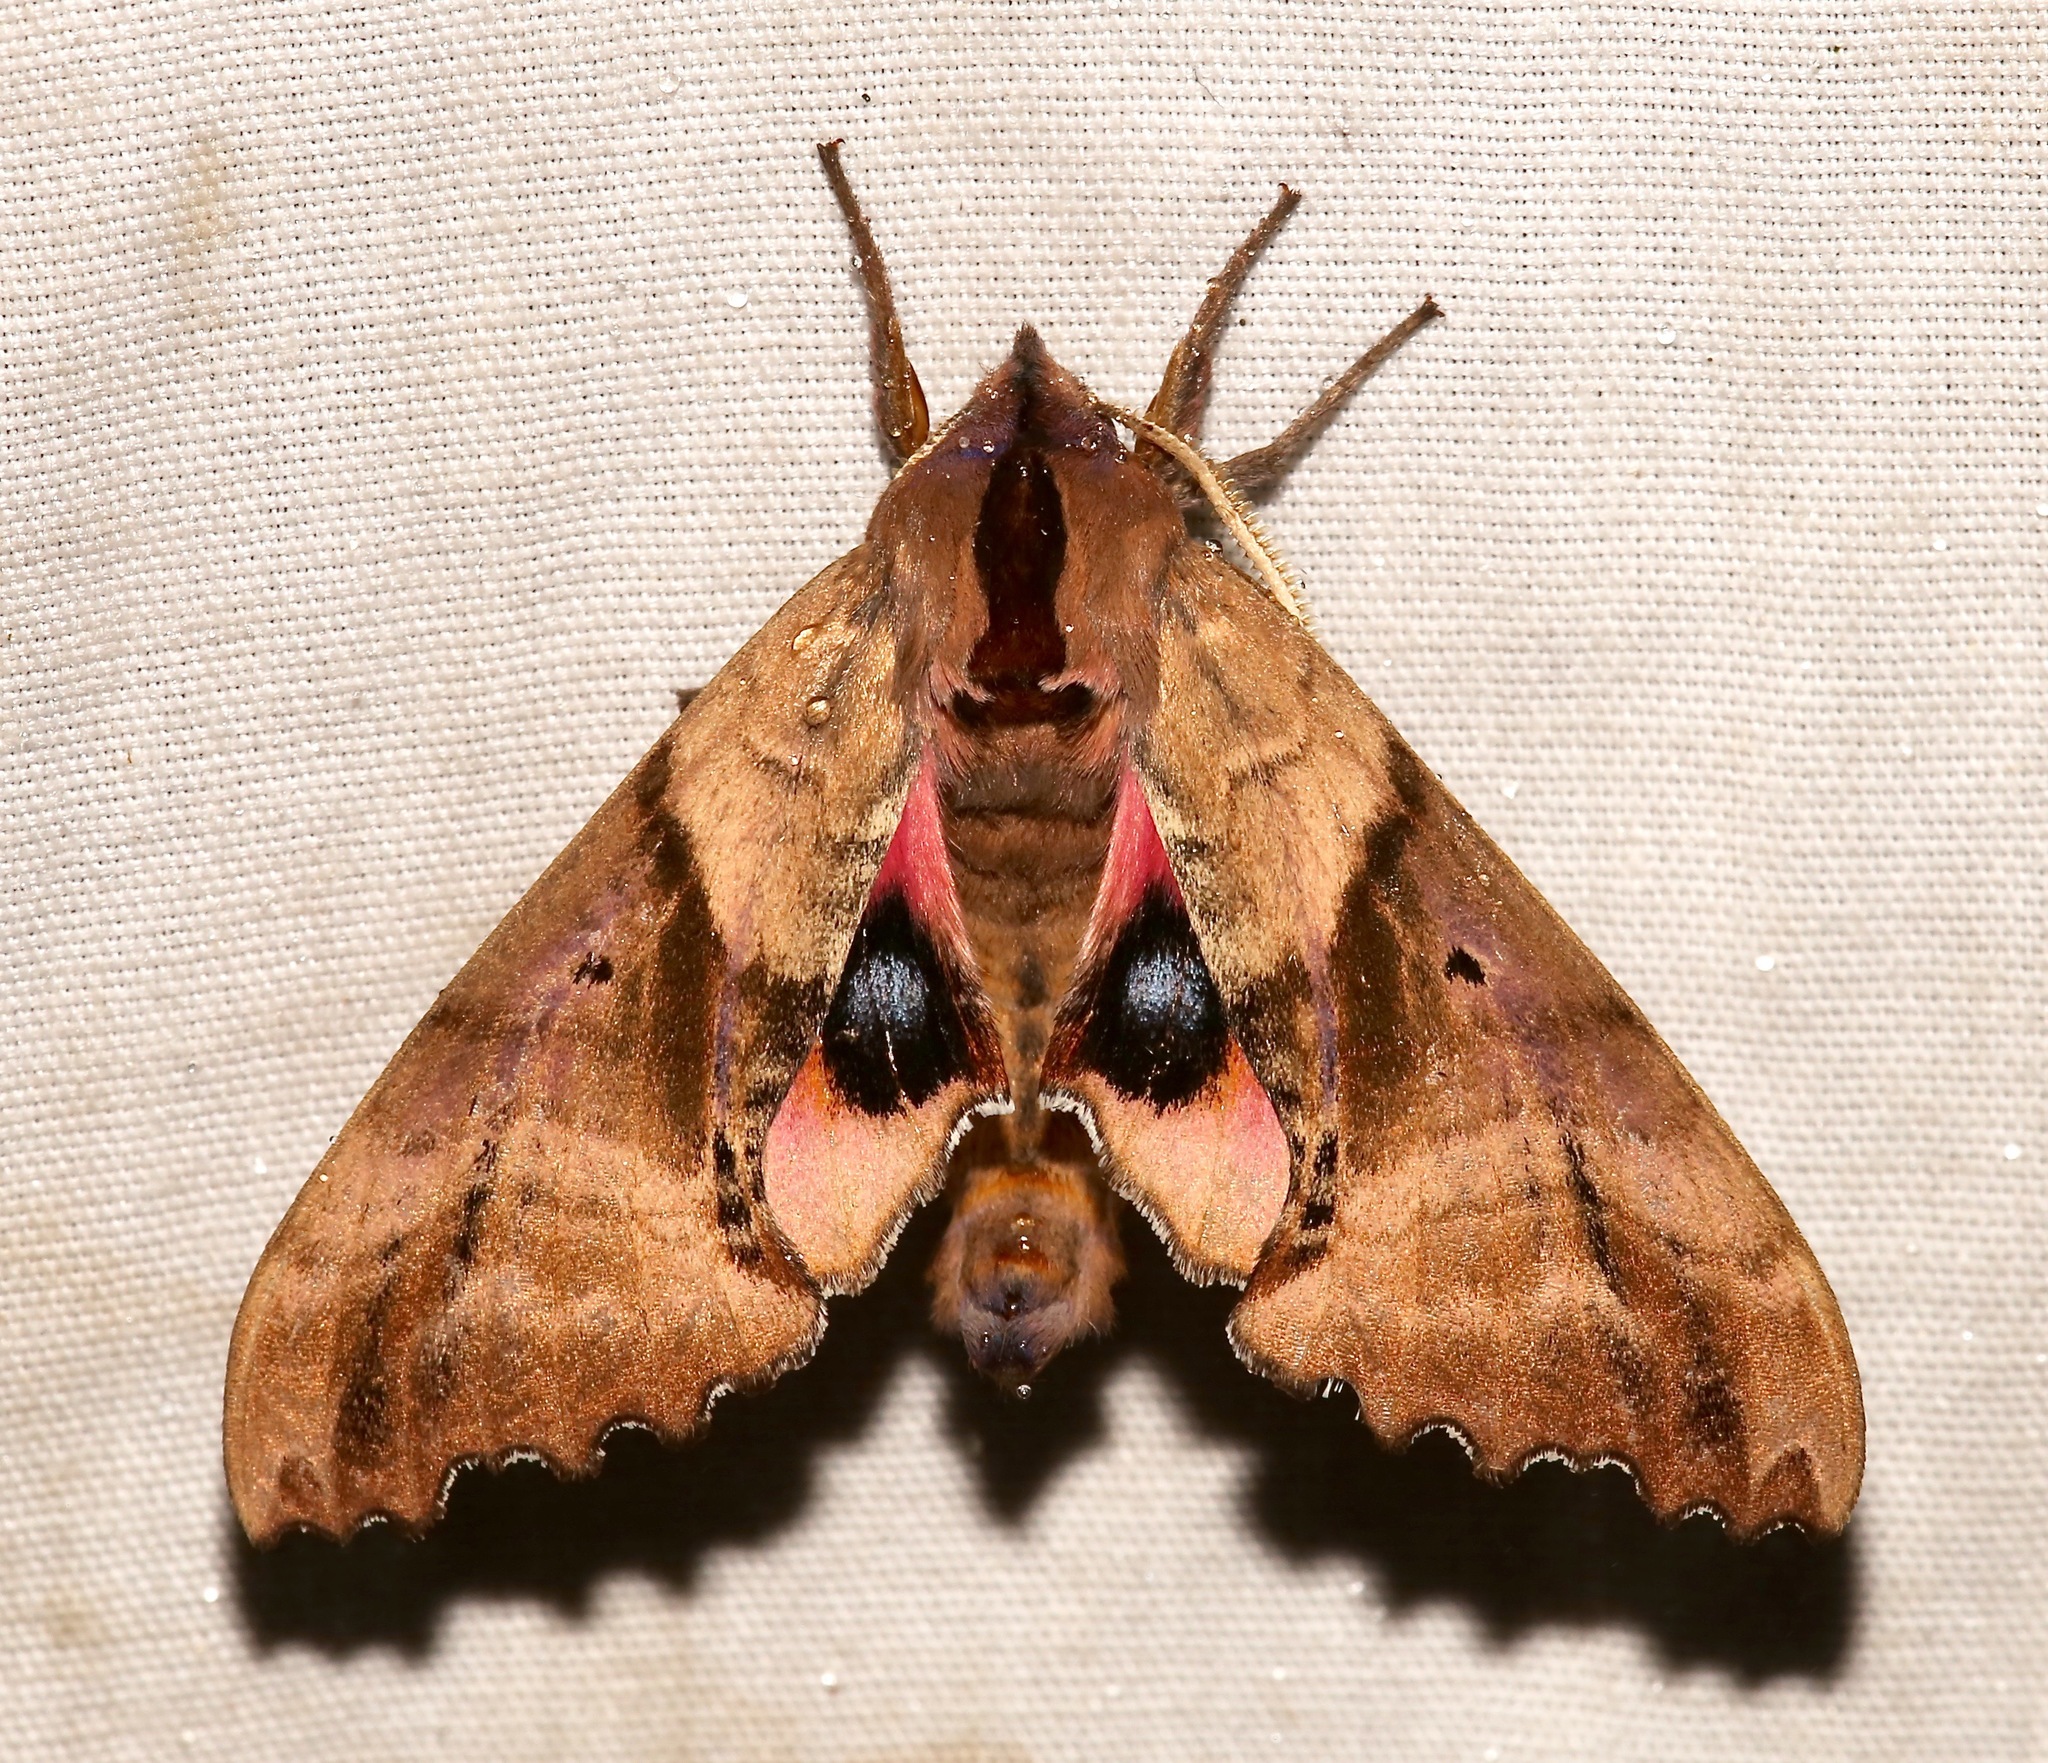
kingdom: Animalia
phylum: Arthropoda
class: Insecta
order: Lepidoptera
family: Sphingidae
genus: Paonias
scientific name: Paonias excaecata
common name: Blind-eyed sphinx
